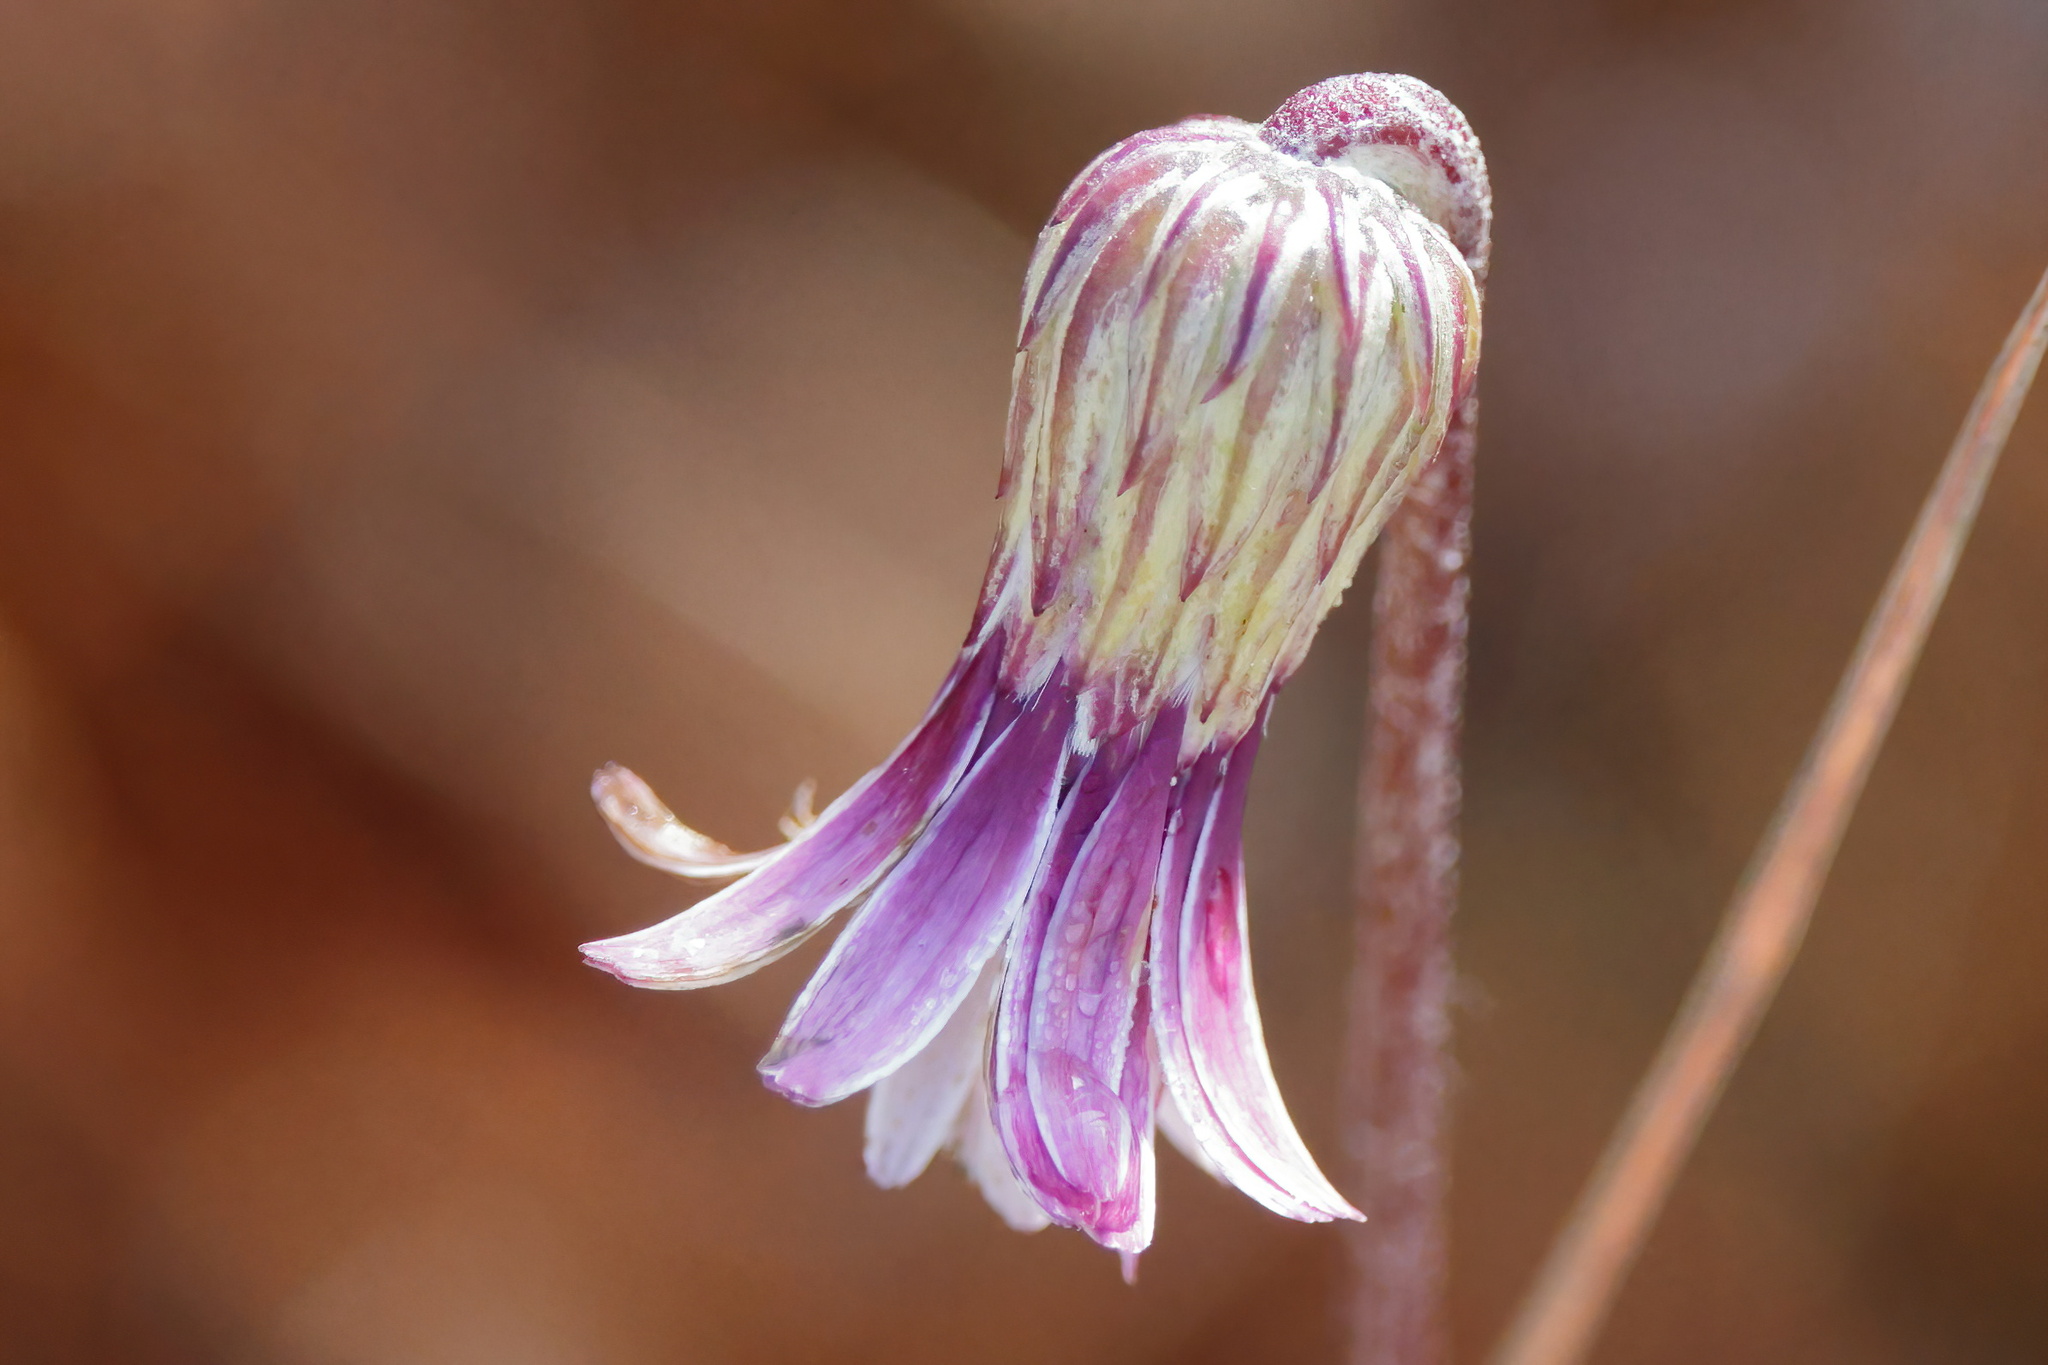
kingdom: Plantae
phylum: Tracheophyta
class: Magnoliopsida
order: Asterales
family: Asteraceae
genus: Chaptalia
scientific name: Chaptalia tomentosa
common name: Woolly sunbonnet
